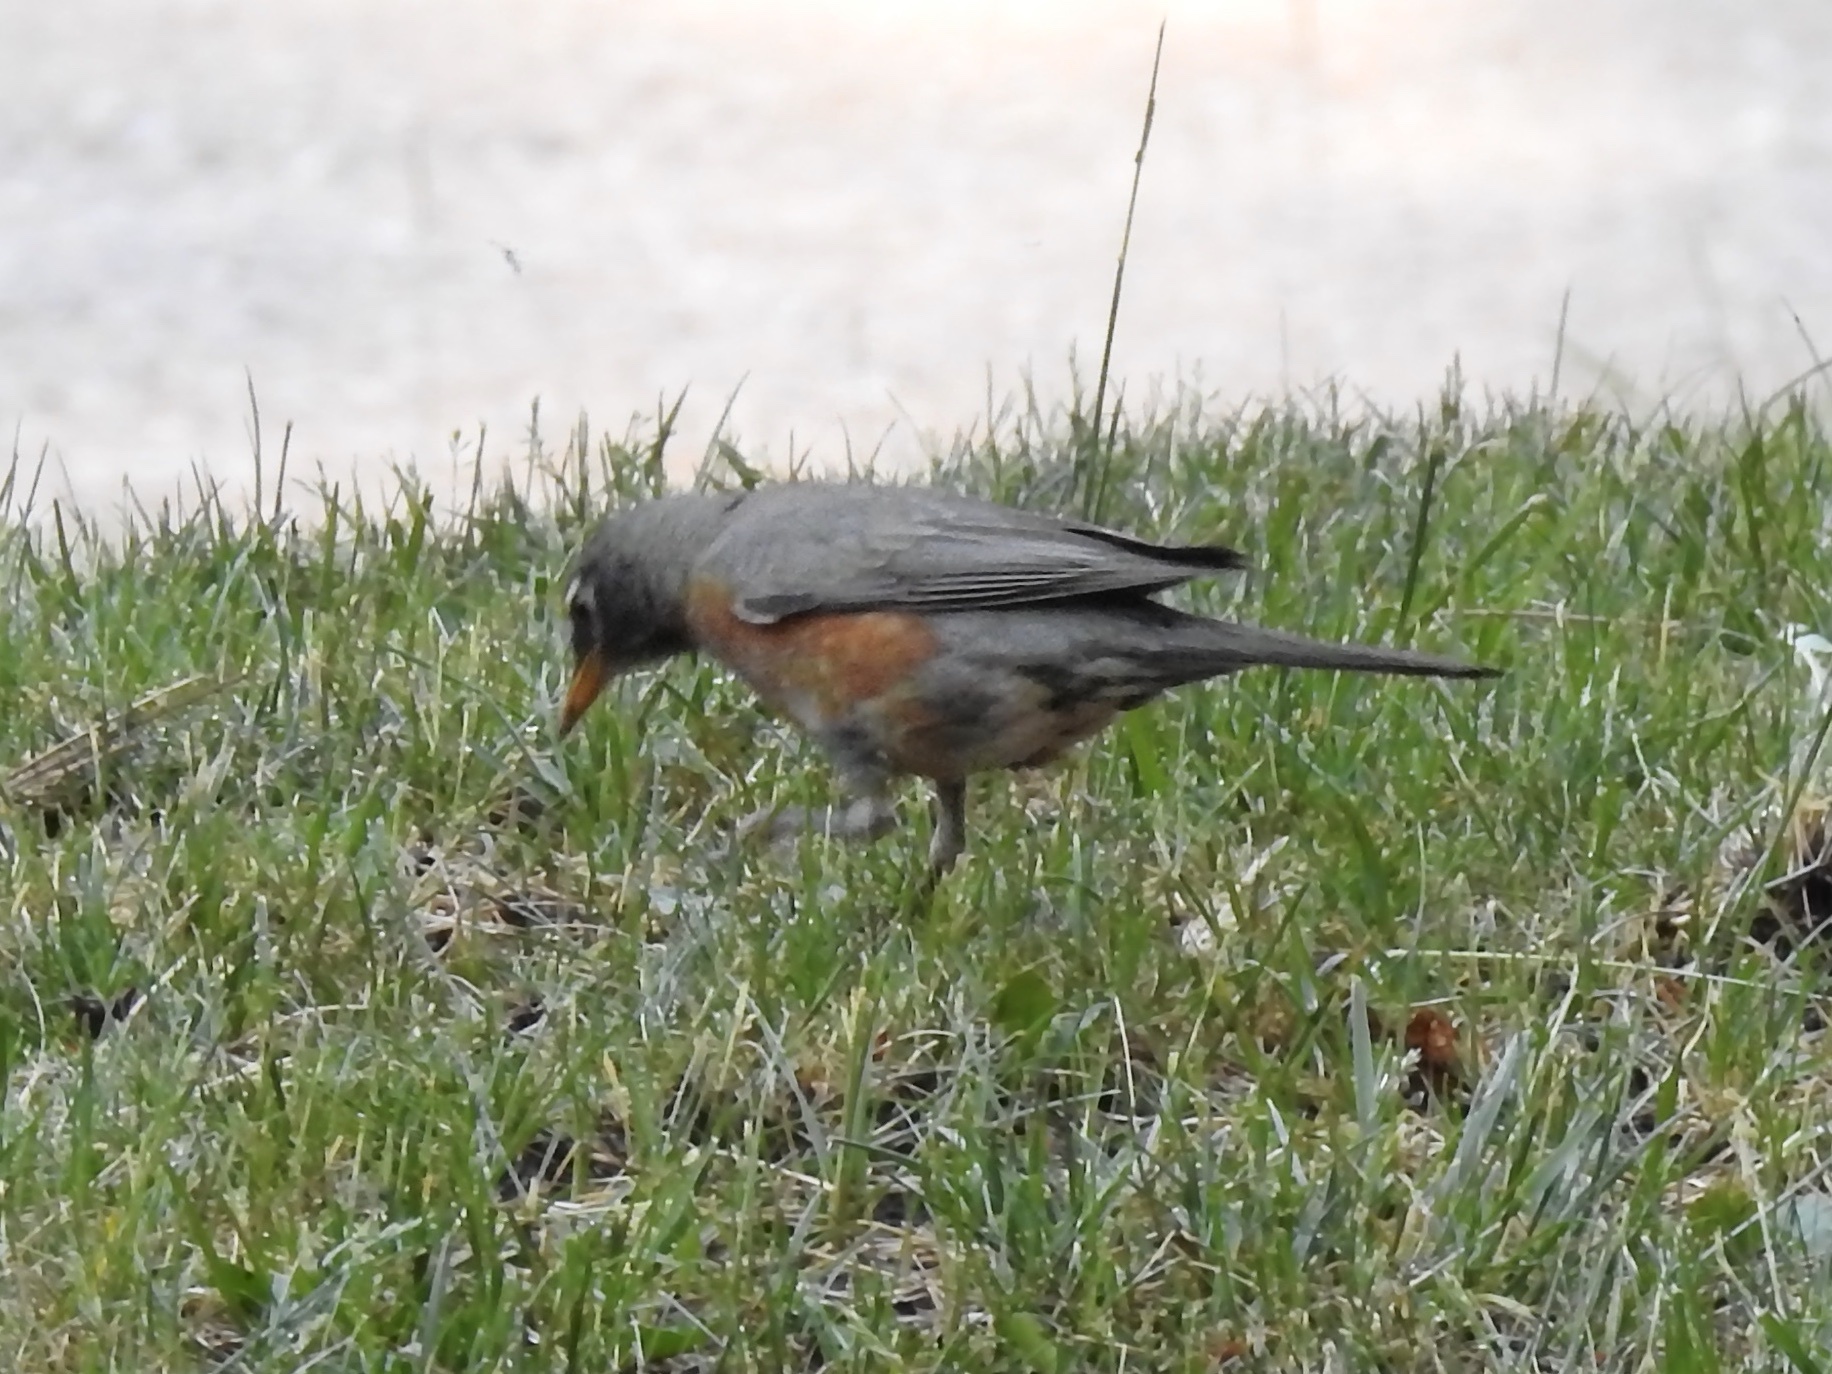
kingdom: Animalia
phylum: Chordata
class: Aves
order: Passeriformes
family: Turdidae
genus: Turdus
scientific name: Turdus migratorius
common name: American robin
